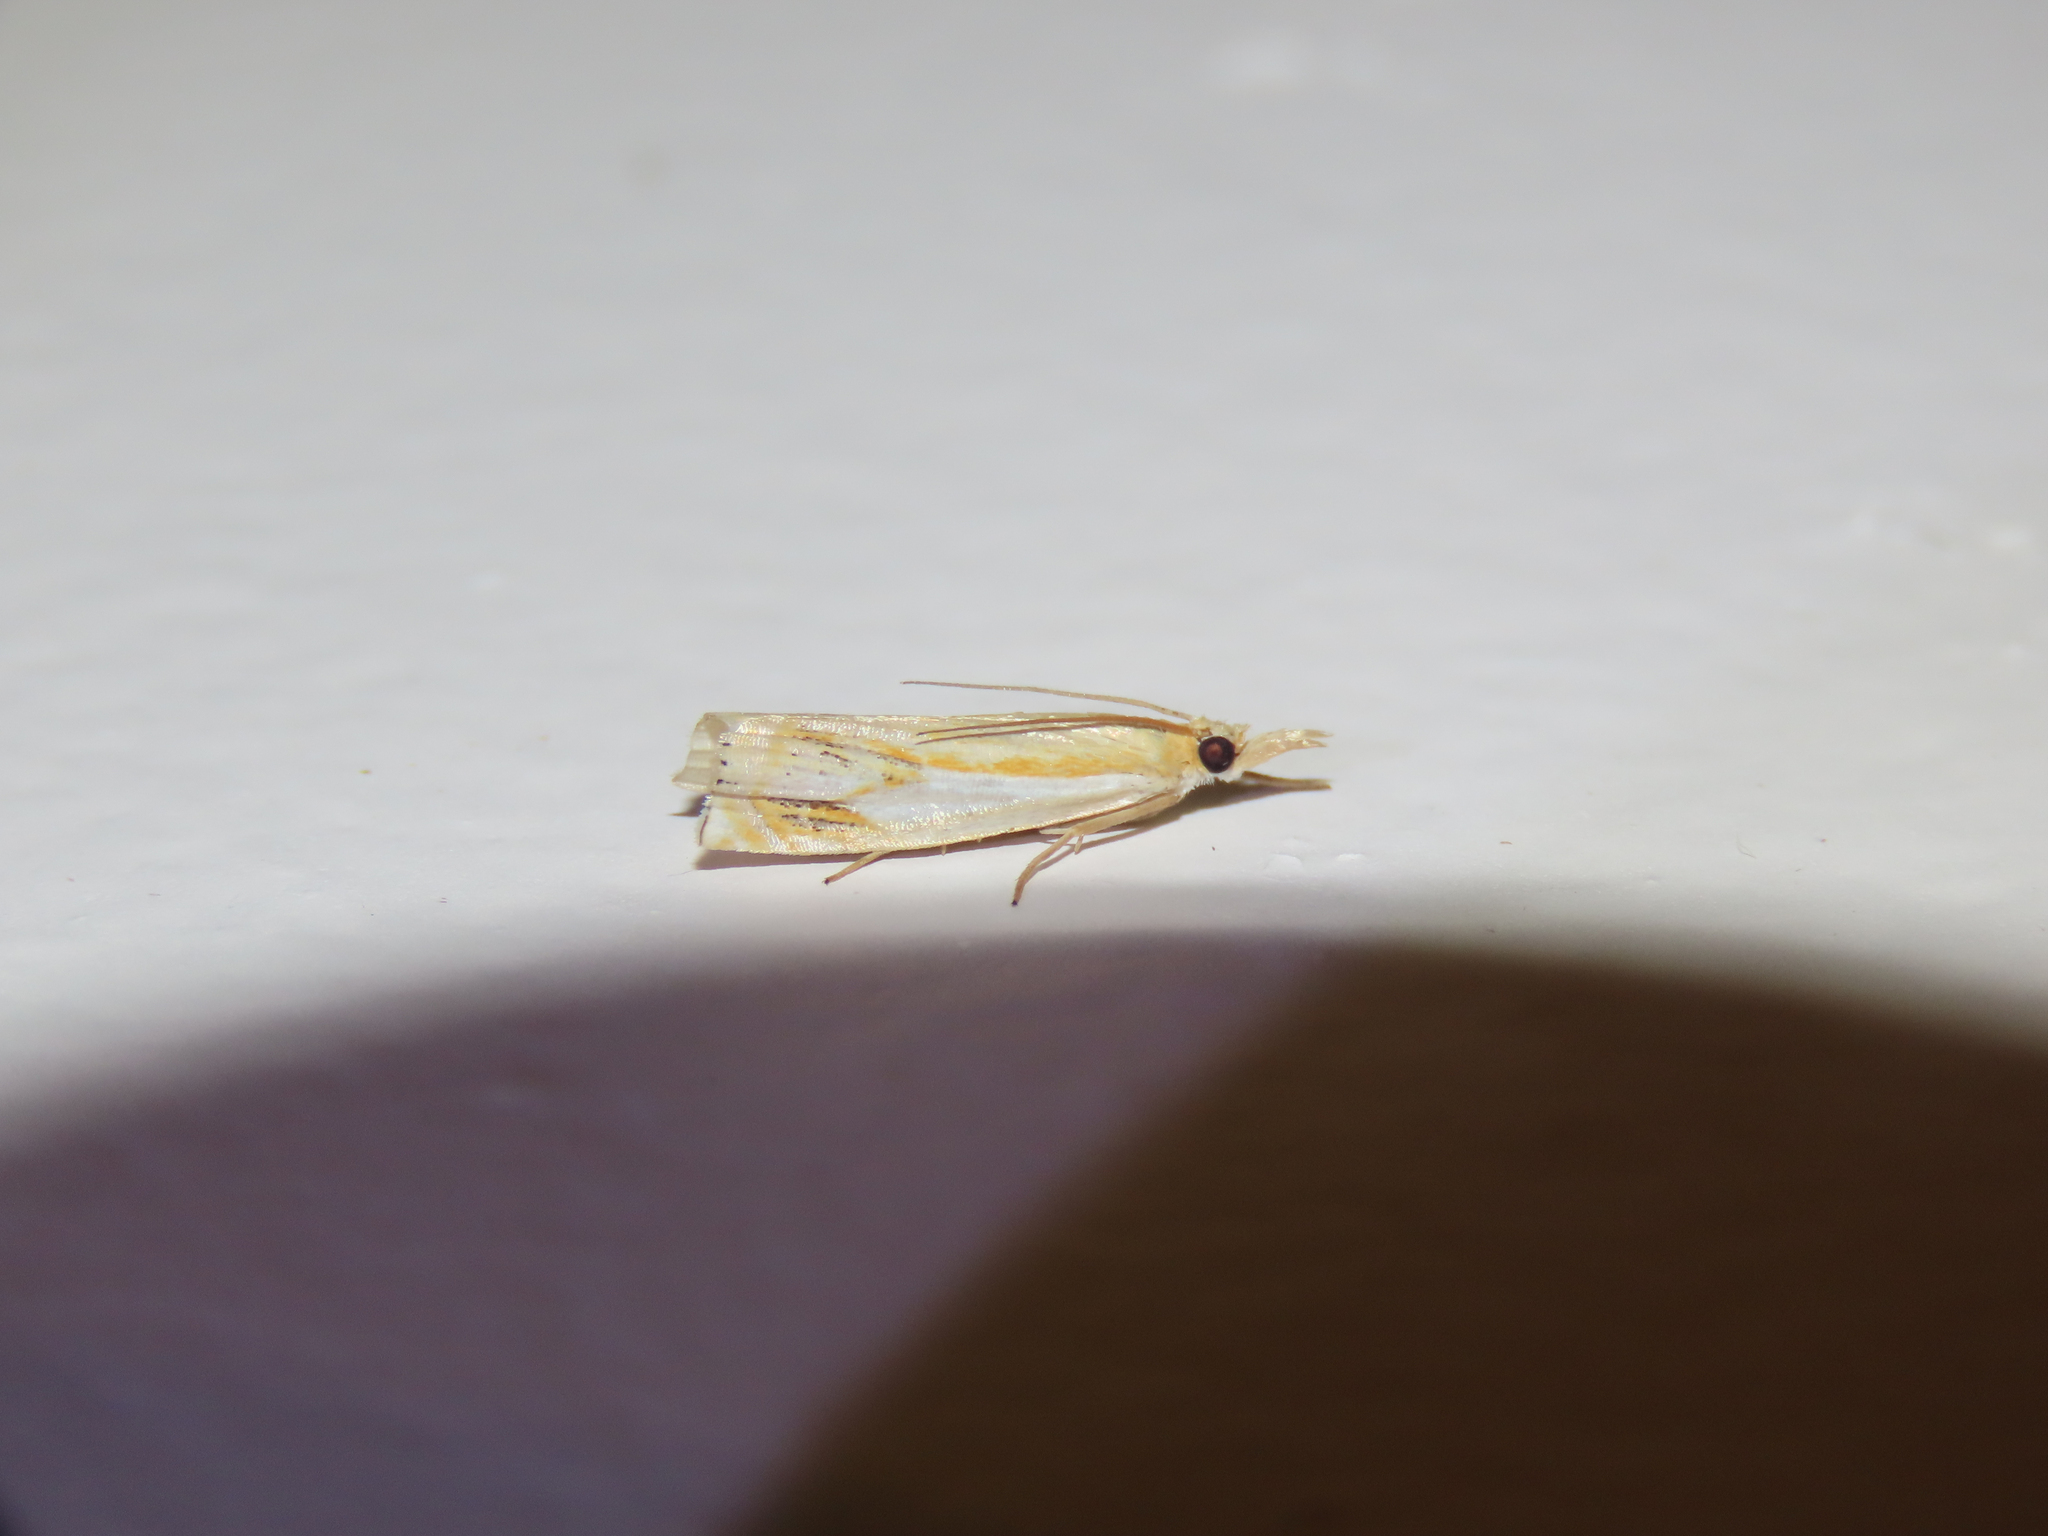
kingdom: Animalia
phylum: Arthropoda
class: Insecta
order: Lepidoptera
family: Crambidae
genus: Crambus
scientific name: Crambus agitatellus
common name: Double-banded grass-veneer
